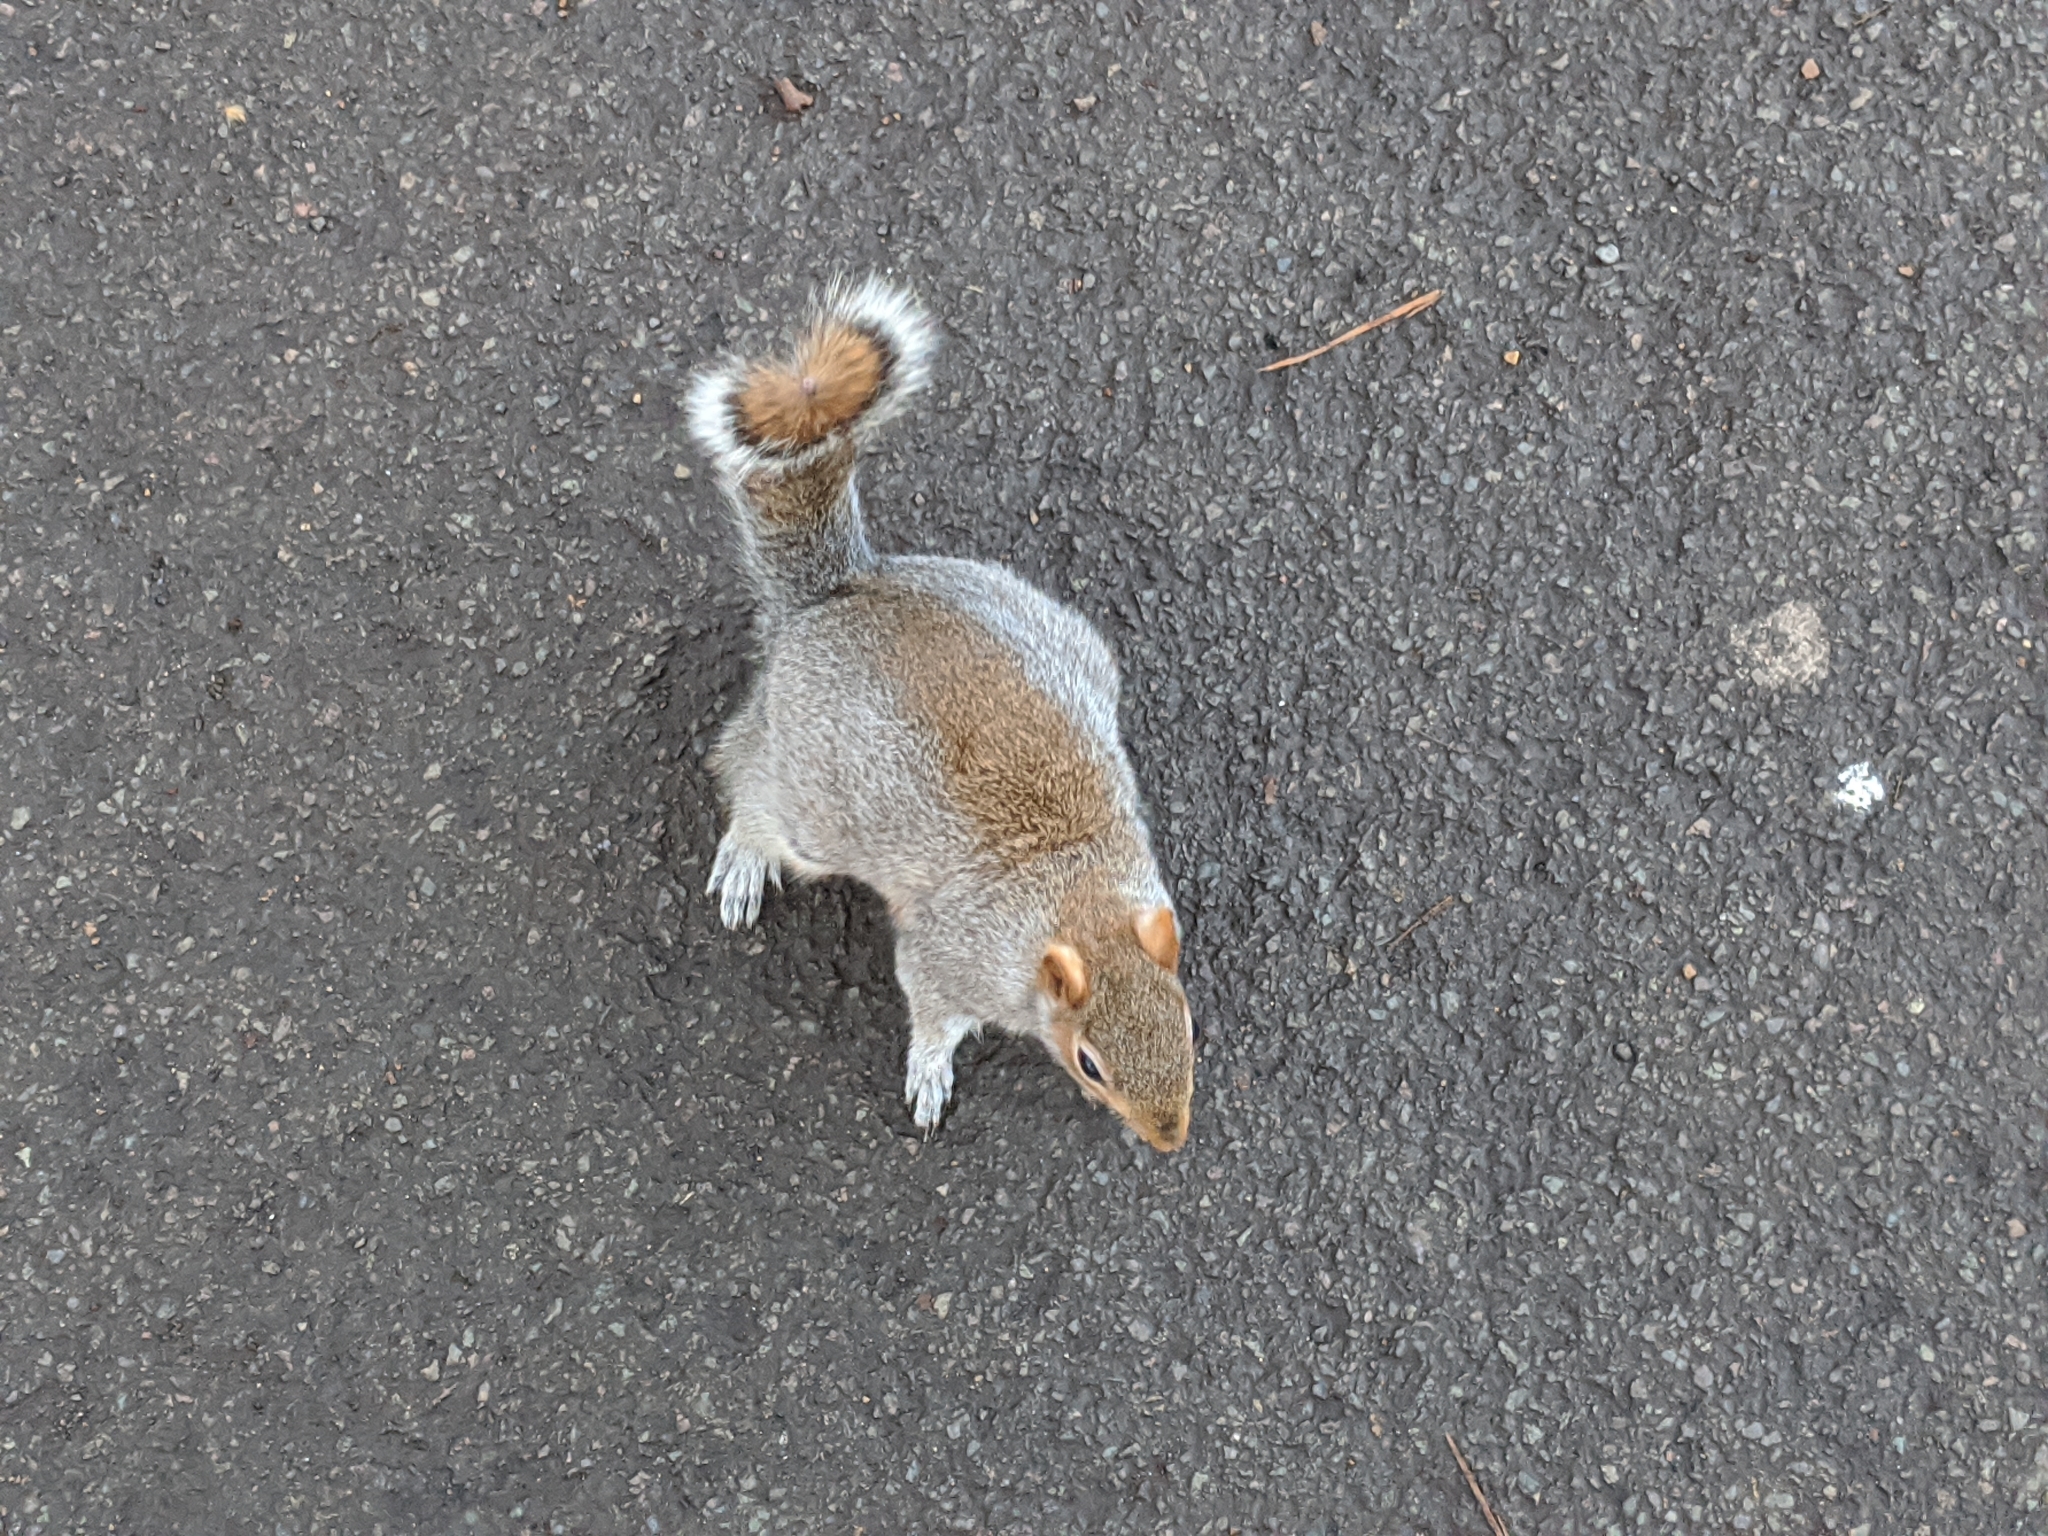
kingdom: Animalia
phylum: Chordata
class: Mammalia
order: Rodentia
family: Sciuridae
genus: Sciurus
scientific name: Sciurus carolinensis
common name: Eastern gray squirrel
